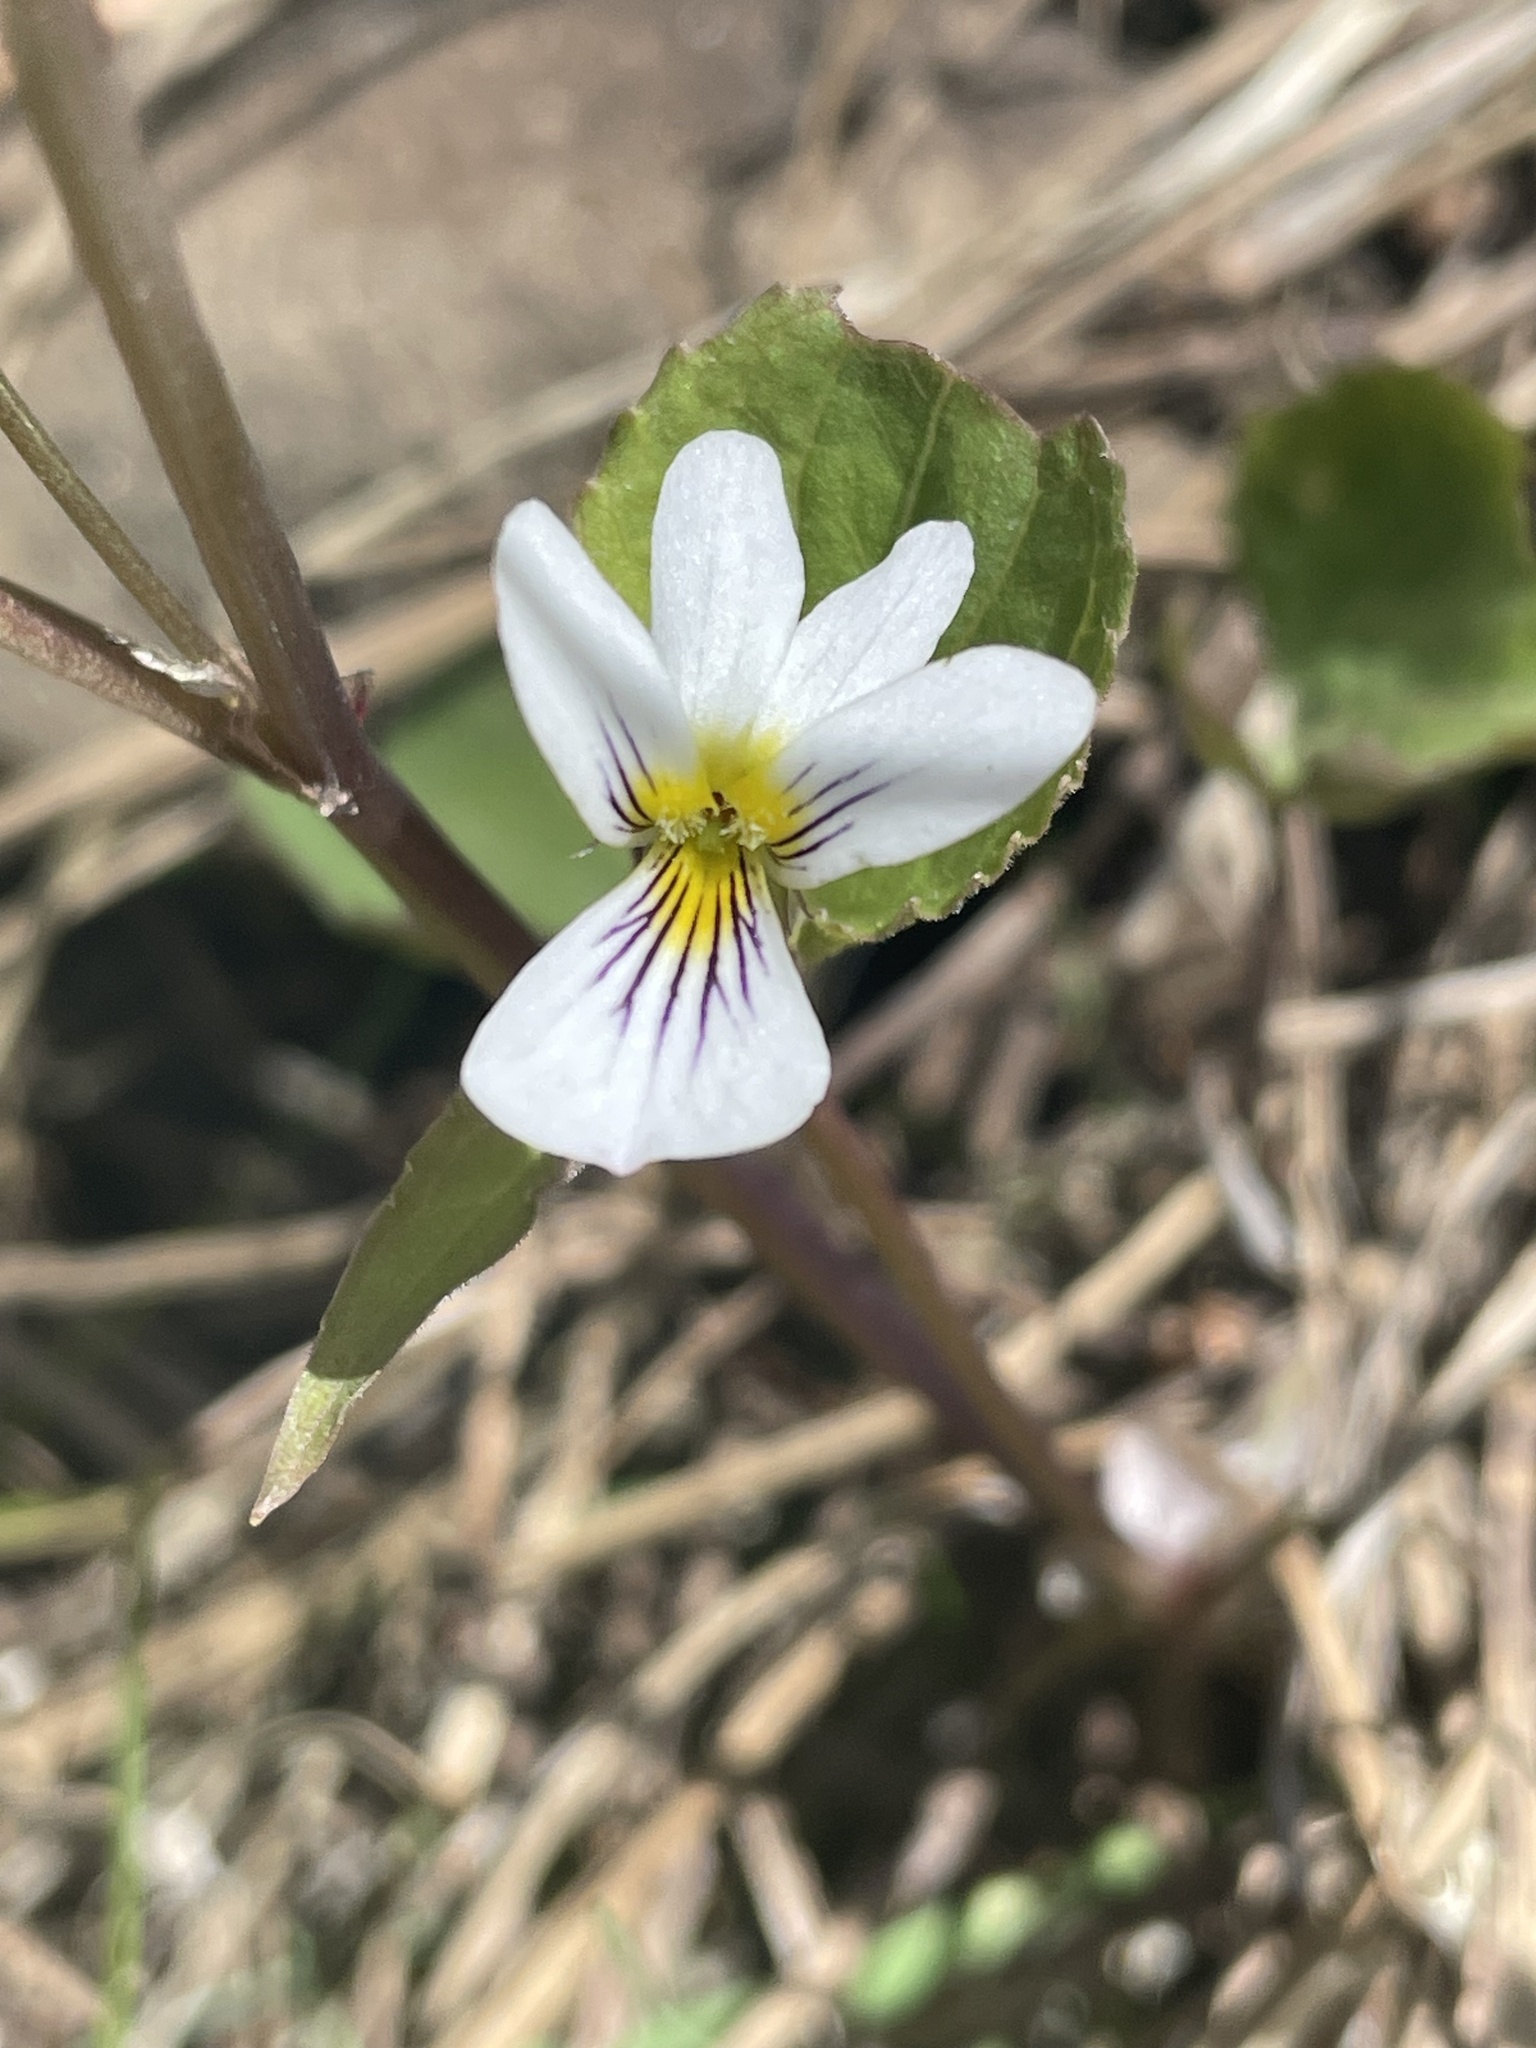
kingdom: Plantae
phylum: Tracheophyta
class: Magnoliopsida
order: Malpighiales
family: Violaceae
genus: Viola
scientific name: Viola canadensis
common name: Canada violet
